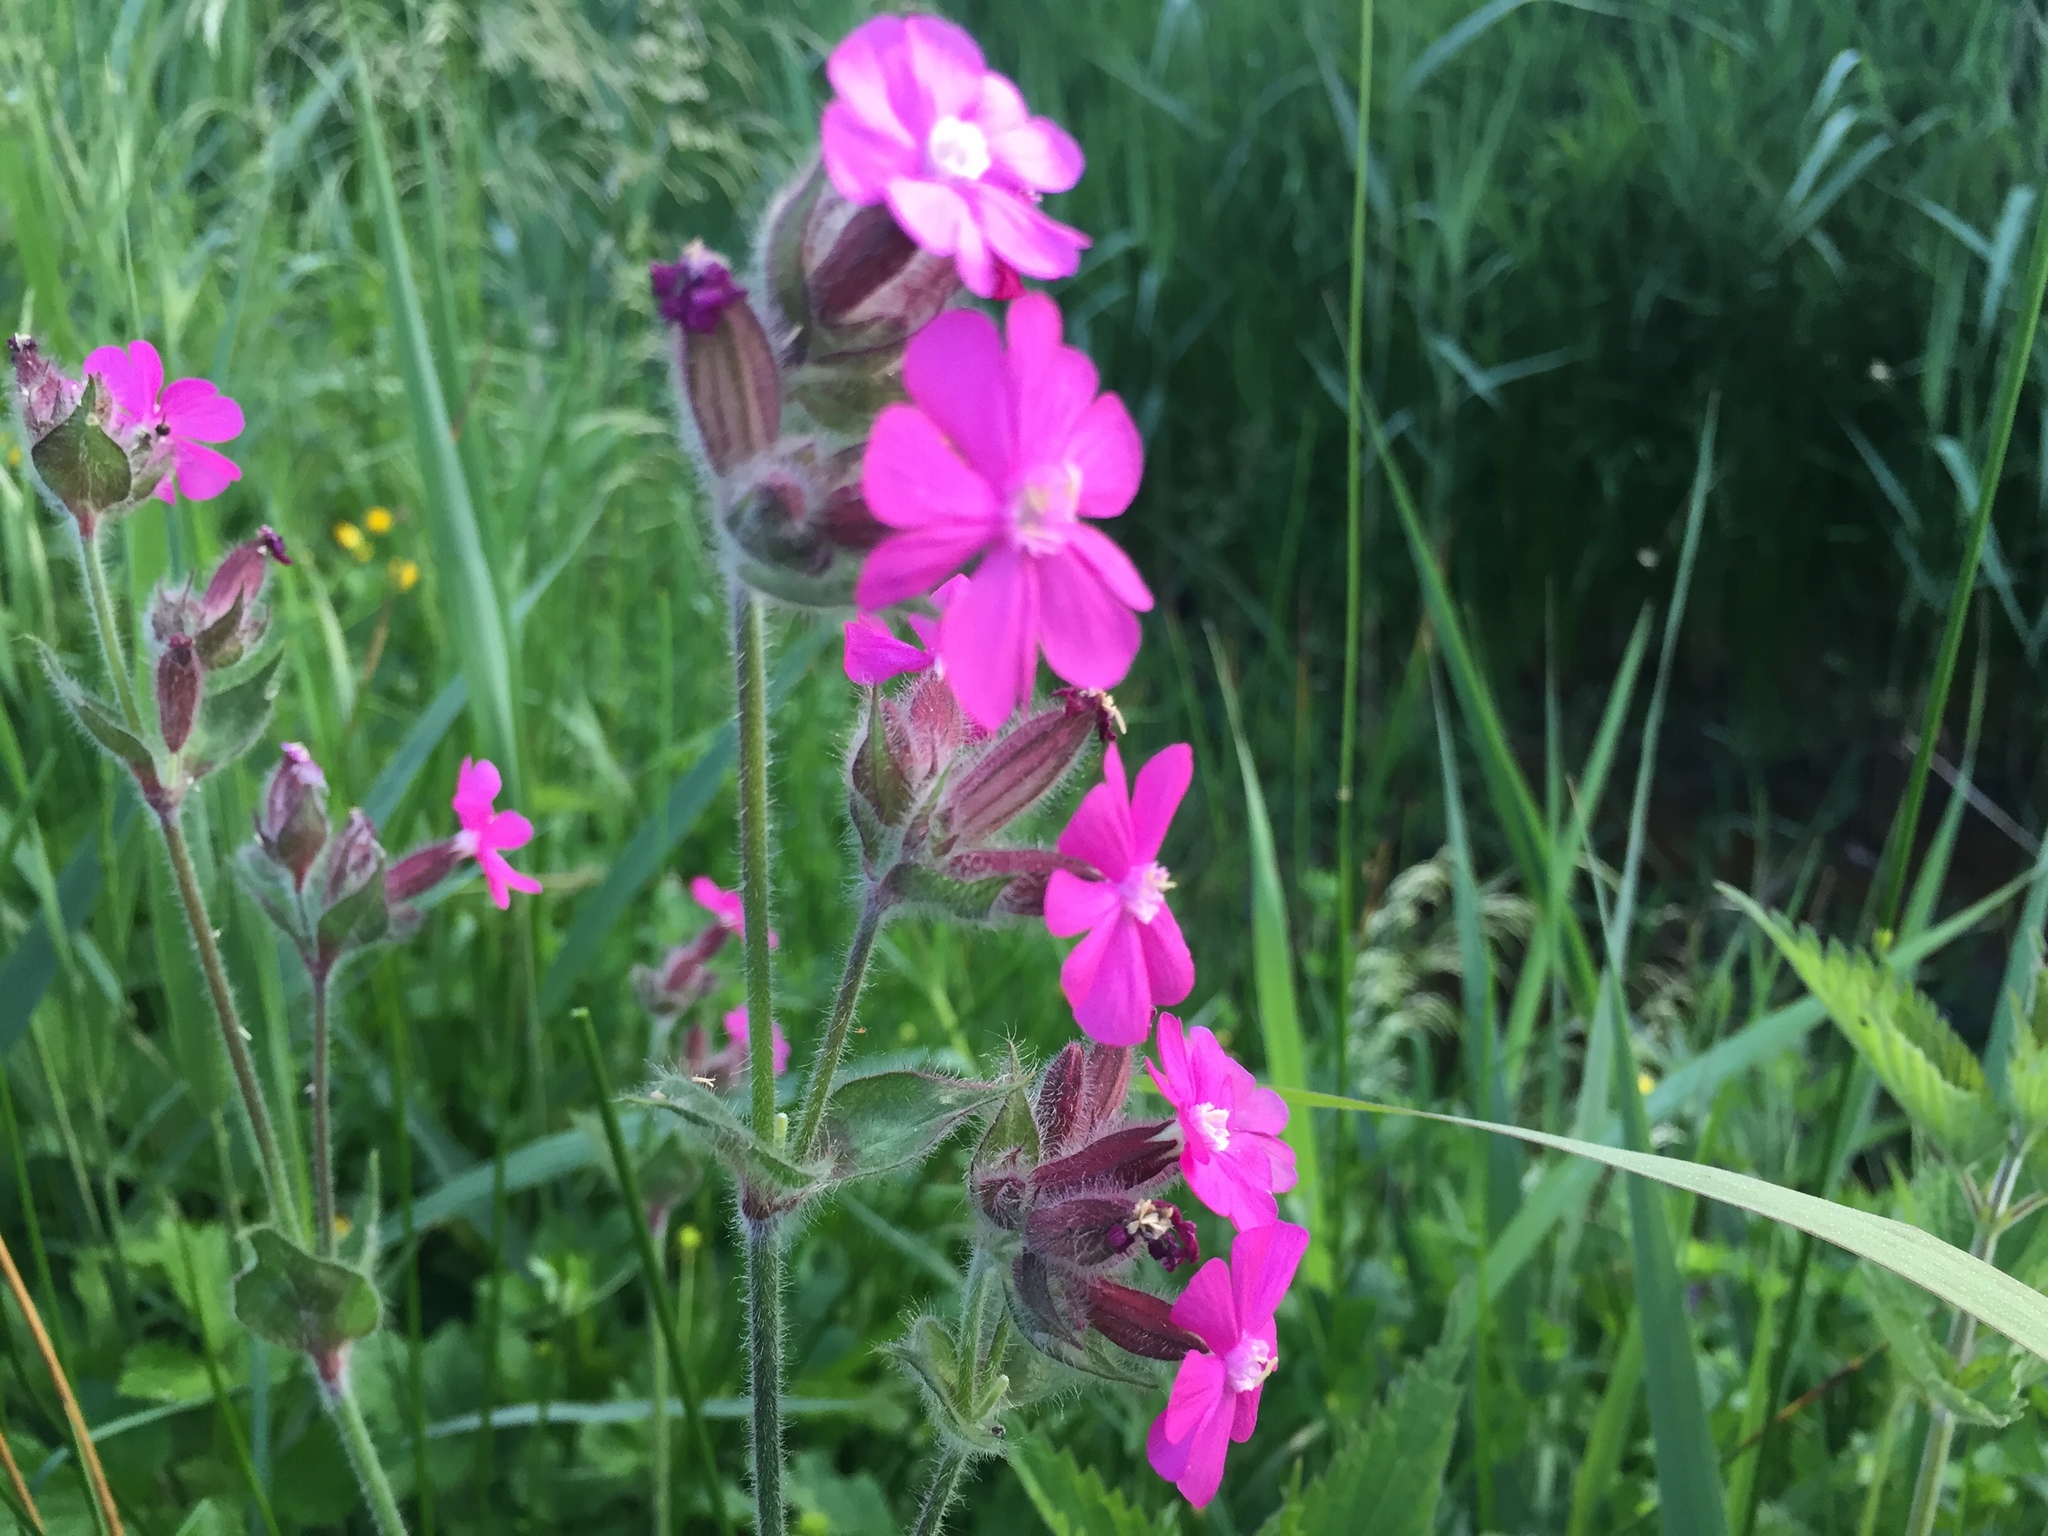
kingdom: Plantae
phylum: Tracheophyta
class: Magnoliopsida
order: Caryophyllales
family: Caryophyllaceae
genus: Silene
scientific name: Silene dioica
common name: Red campion
